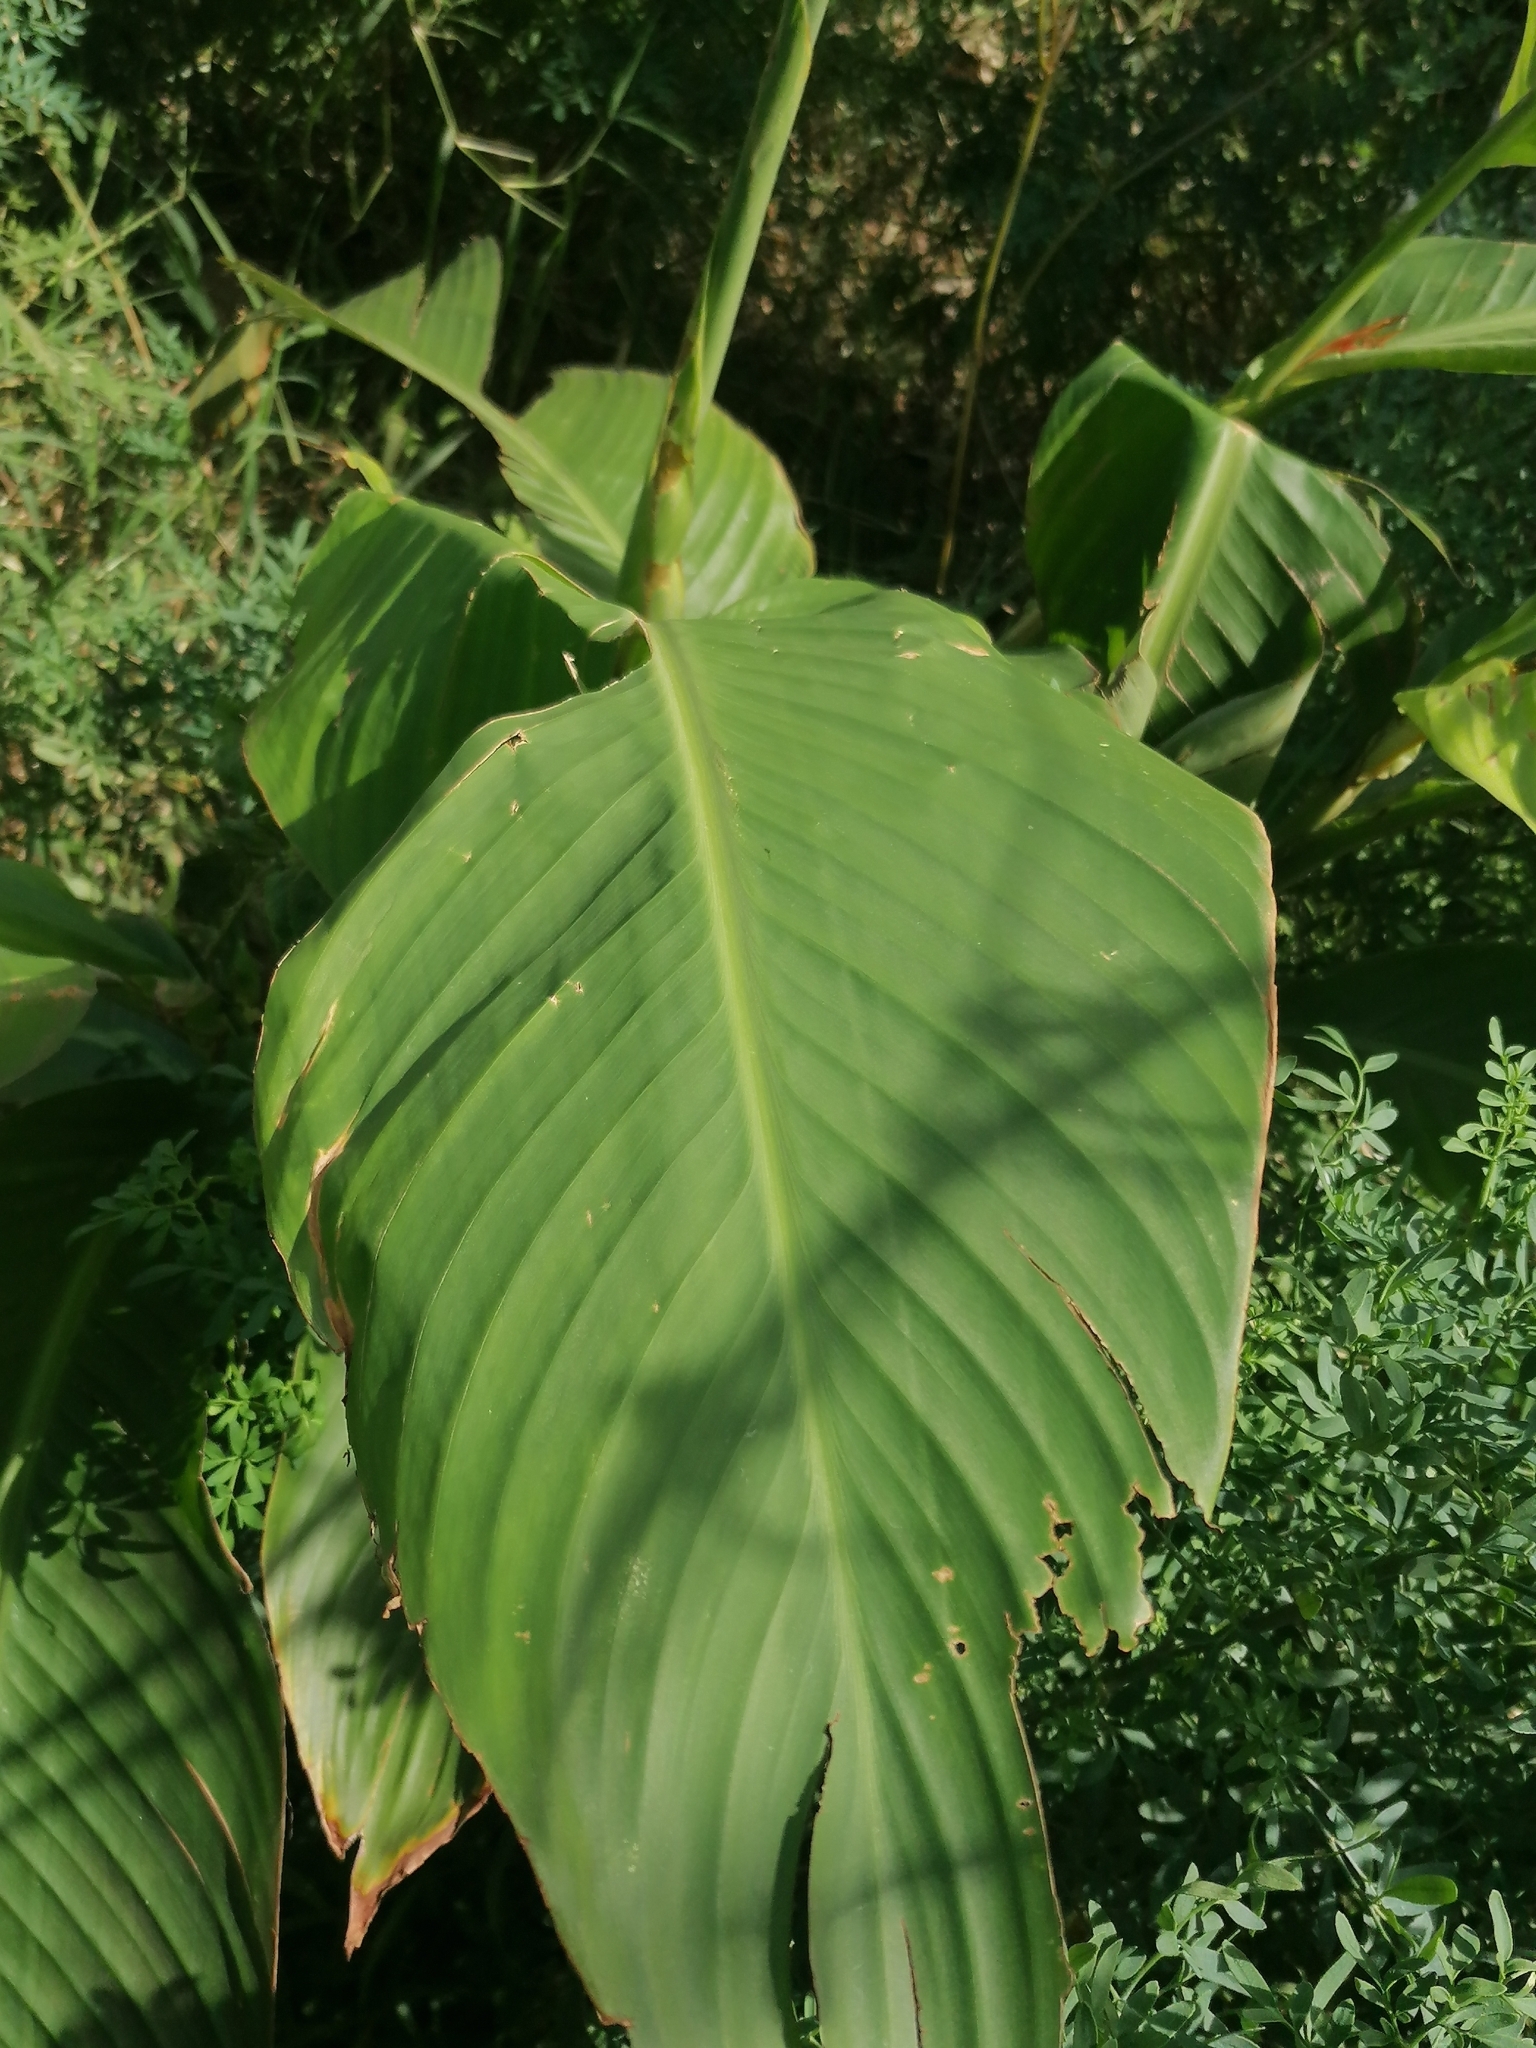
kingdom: Plantae
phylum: Tracheophyta
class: Liliopsida
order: Zingiberales
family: Cannaceae
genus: Canna
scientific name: Canna indica
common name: Indian shot
